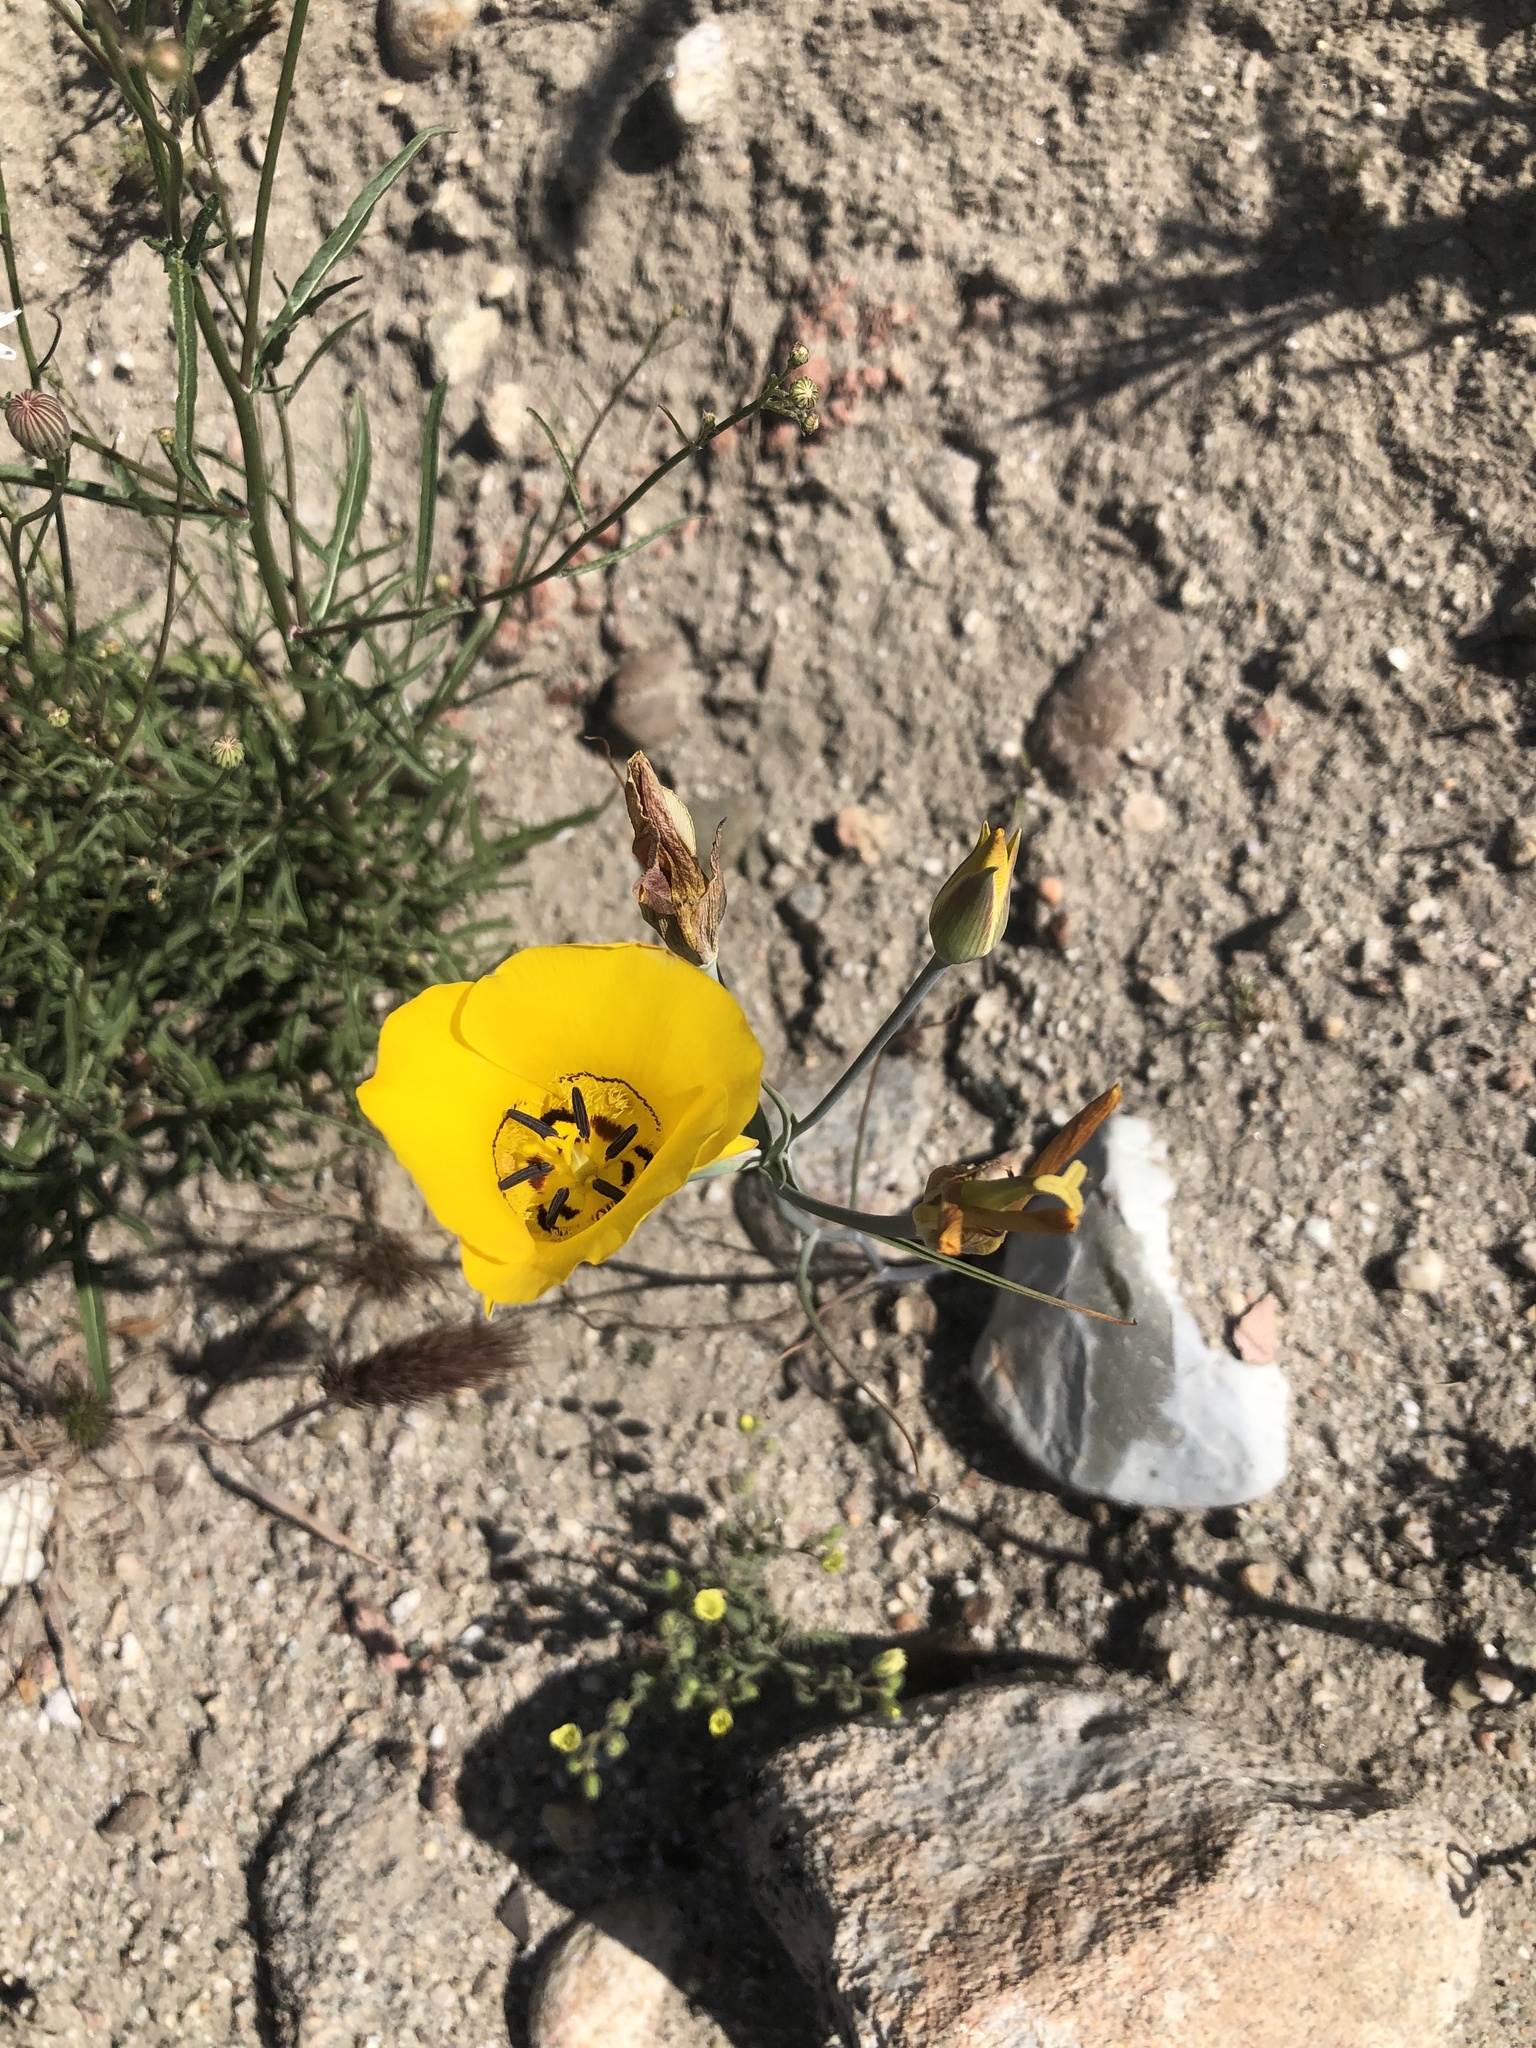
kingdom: Plantae
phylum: Tracheophyta
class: Liliopsida
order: Liliales
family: Liliaceae
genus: Calochortus
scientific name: Calochortus clavatus
